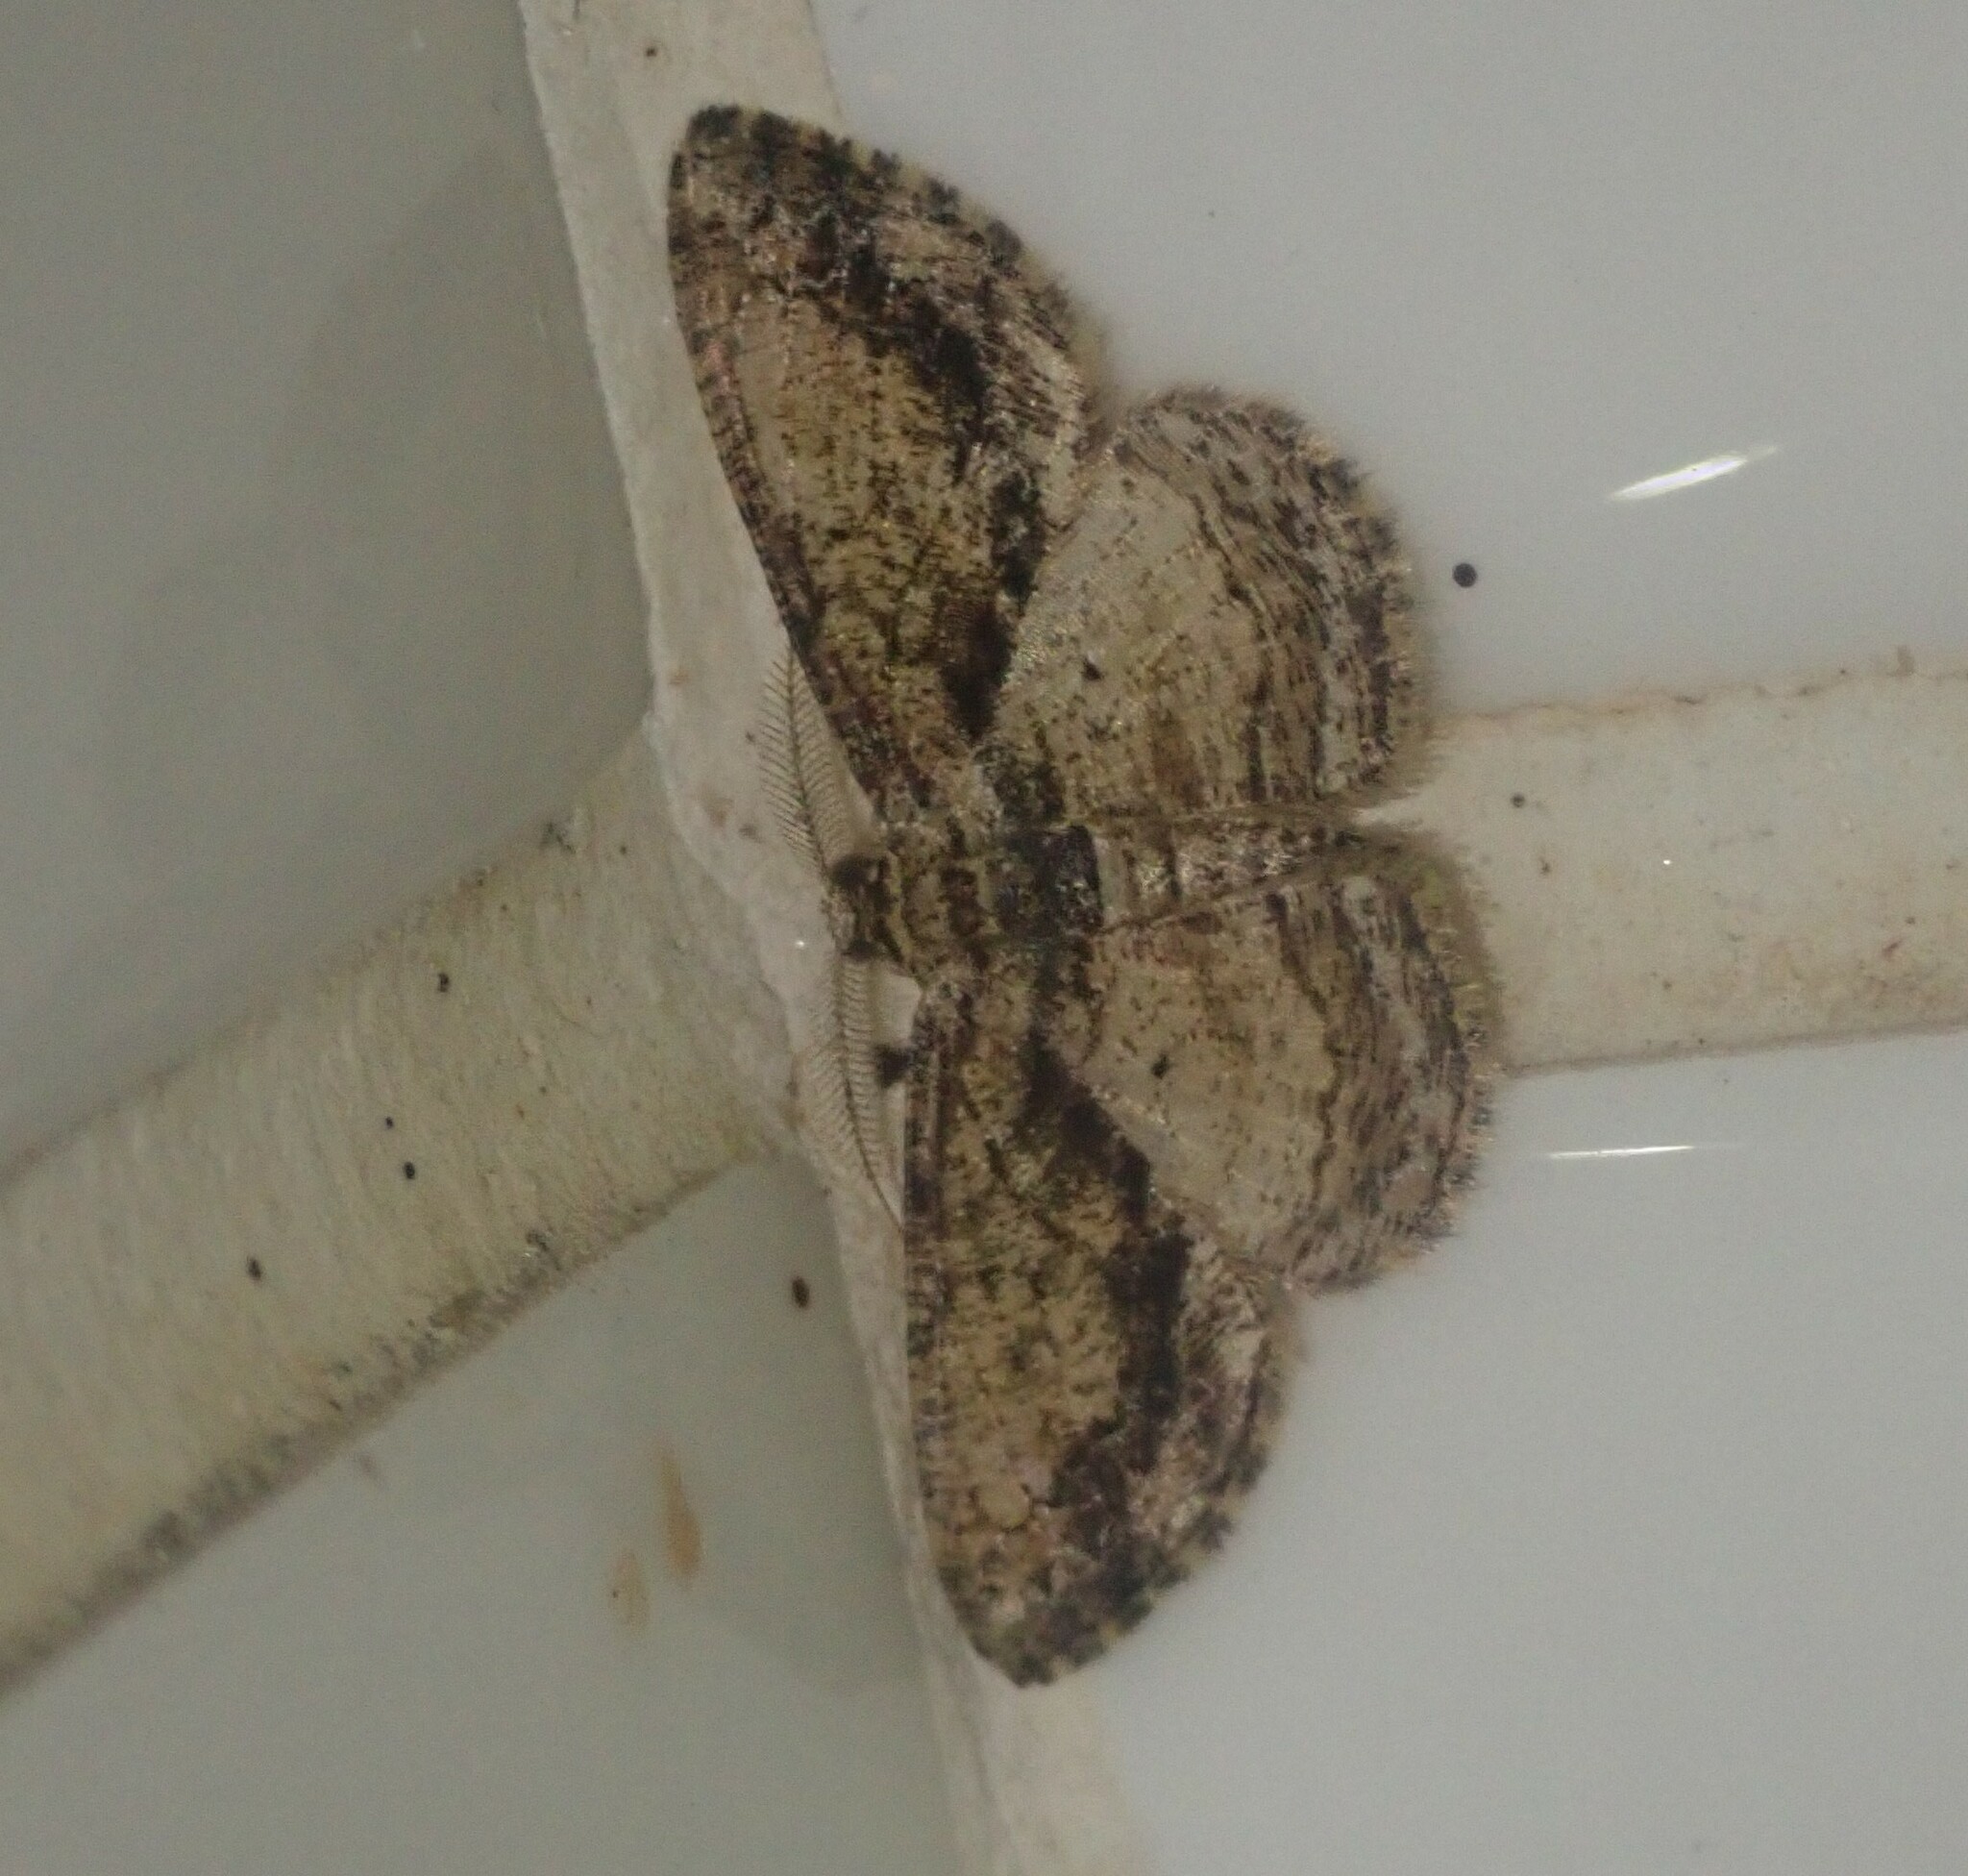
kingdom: Animalia
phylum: Arthropoda
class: Insecta
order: Lepidoptera
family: Geometridae
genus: Zamarada
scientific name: Zamarada ascaphes
